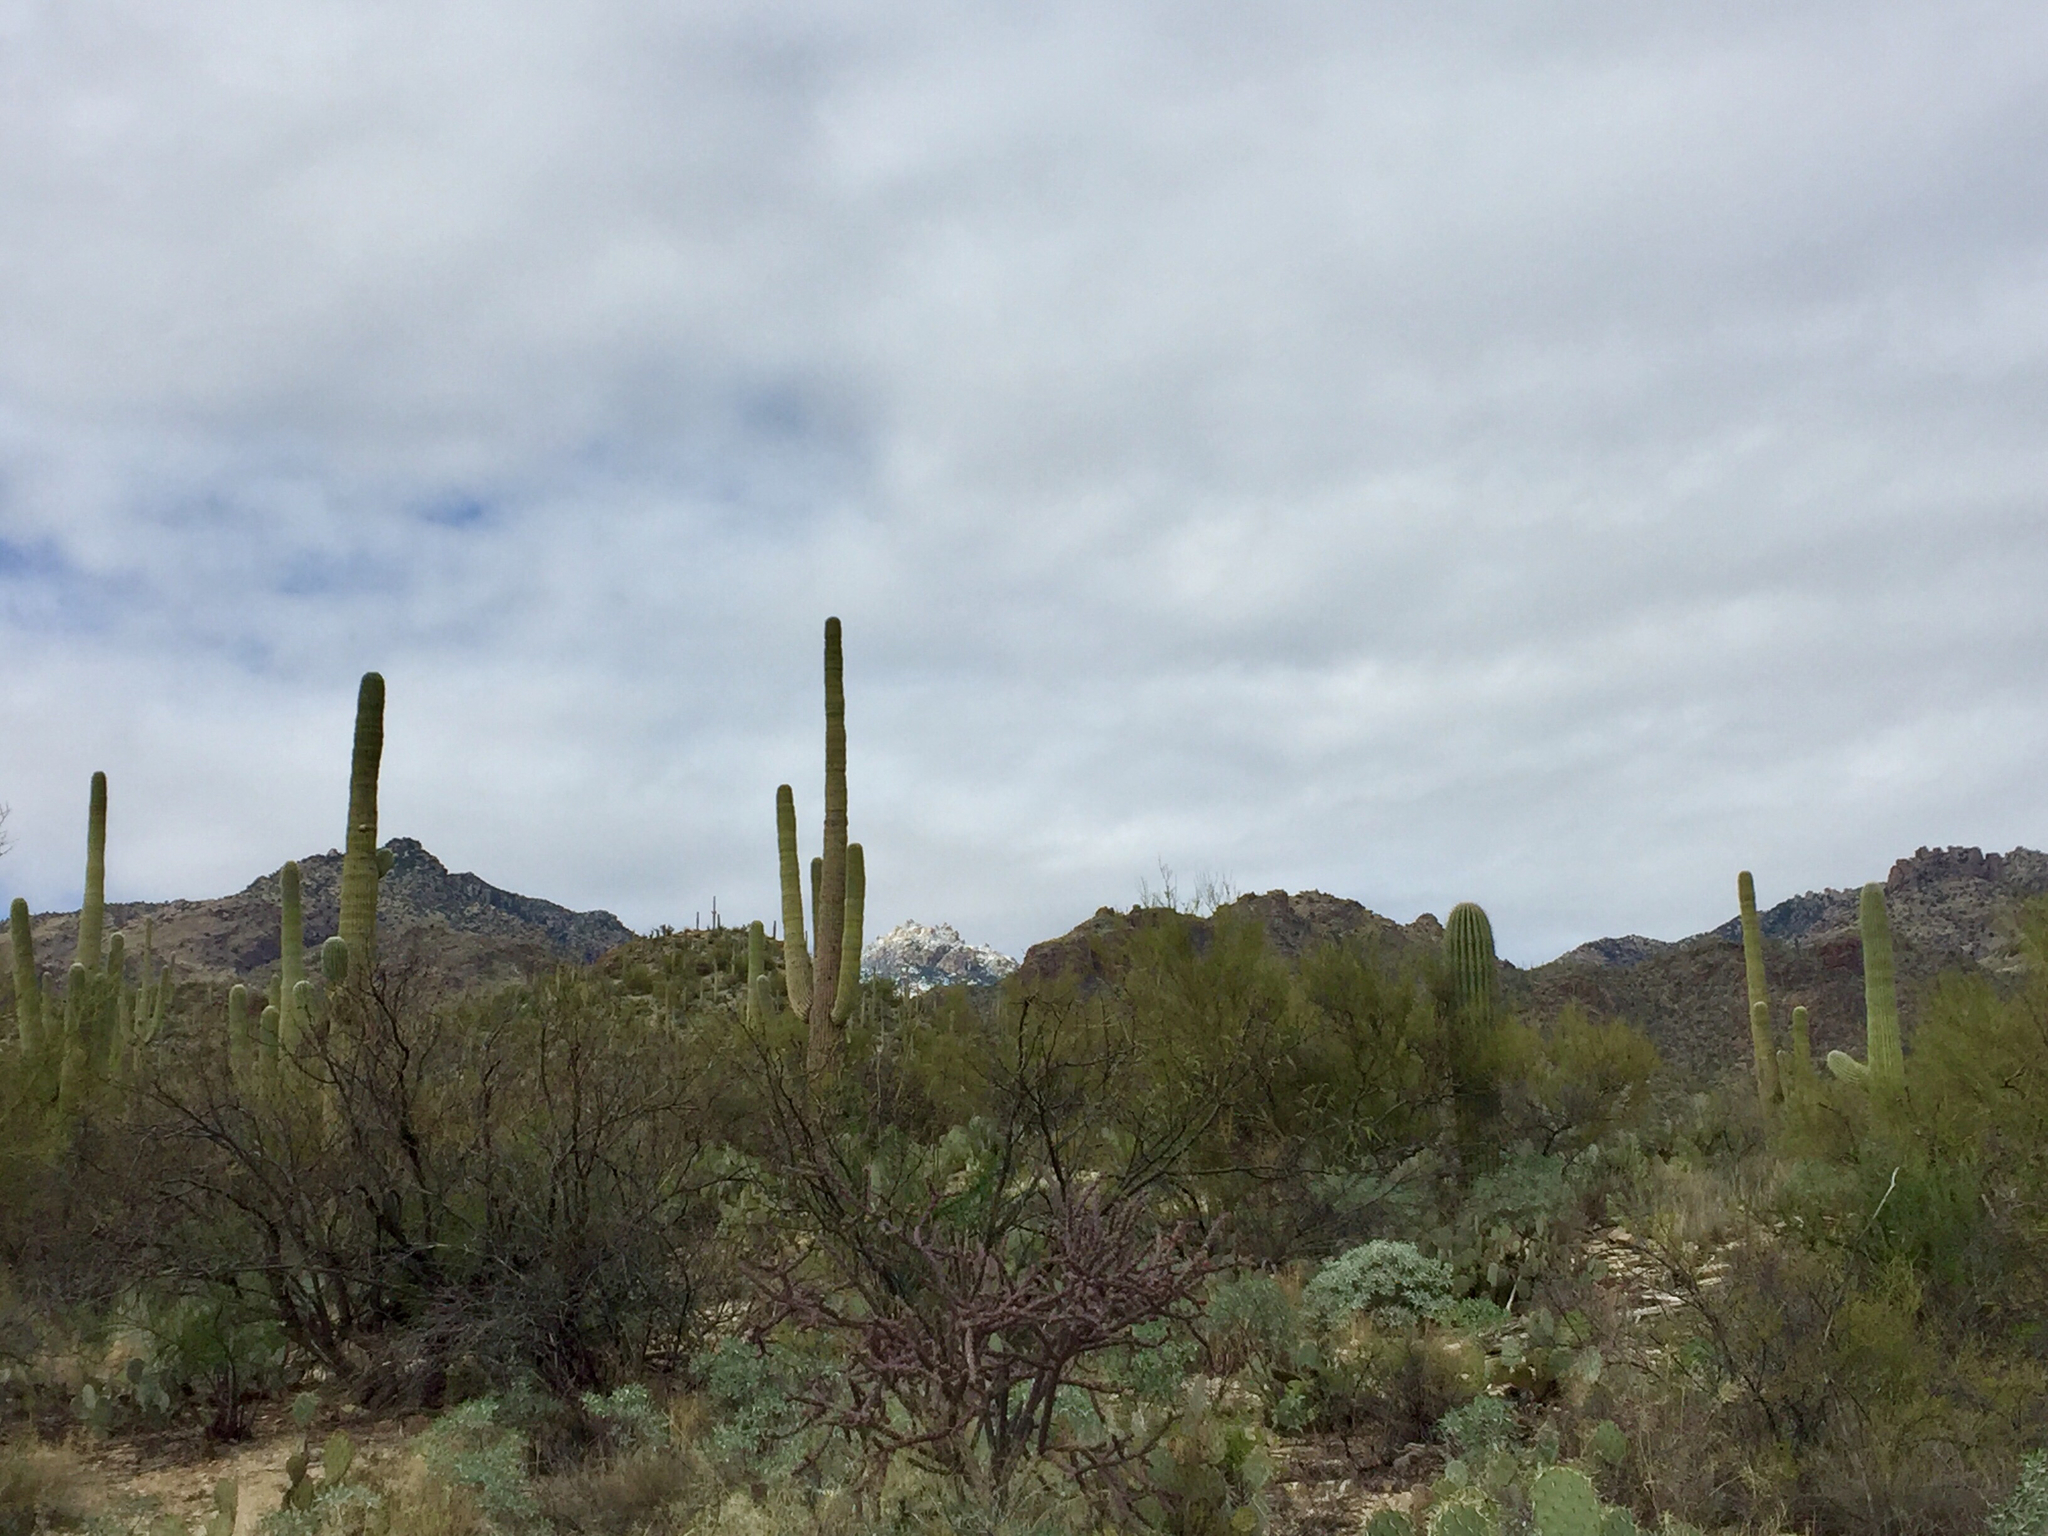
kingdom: Plantae
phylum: Tracheophyta
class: Magnoliopsida
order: Caryophyllales
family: Cactaceae
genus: Carnegiea
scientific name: Carnegiea gigantea
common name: Saguaro
